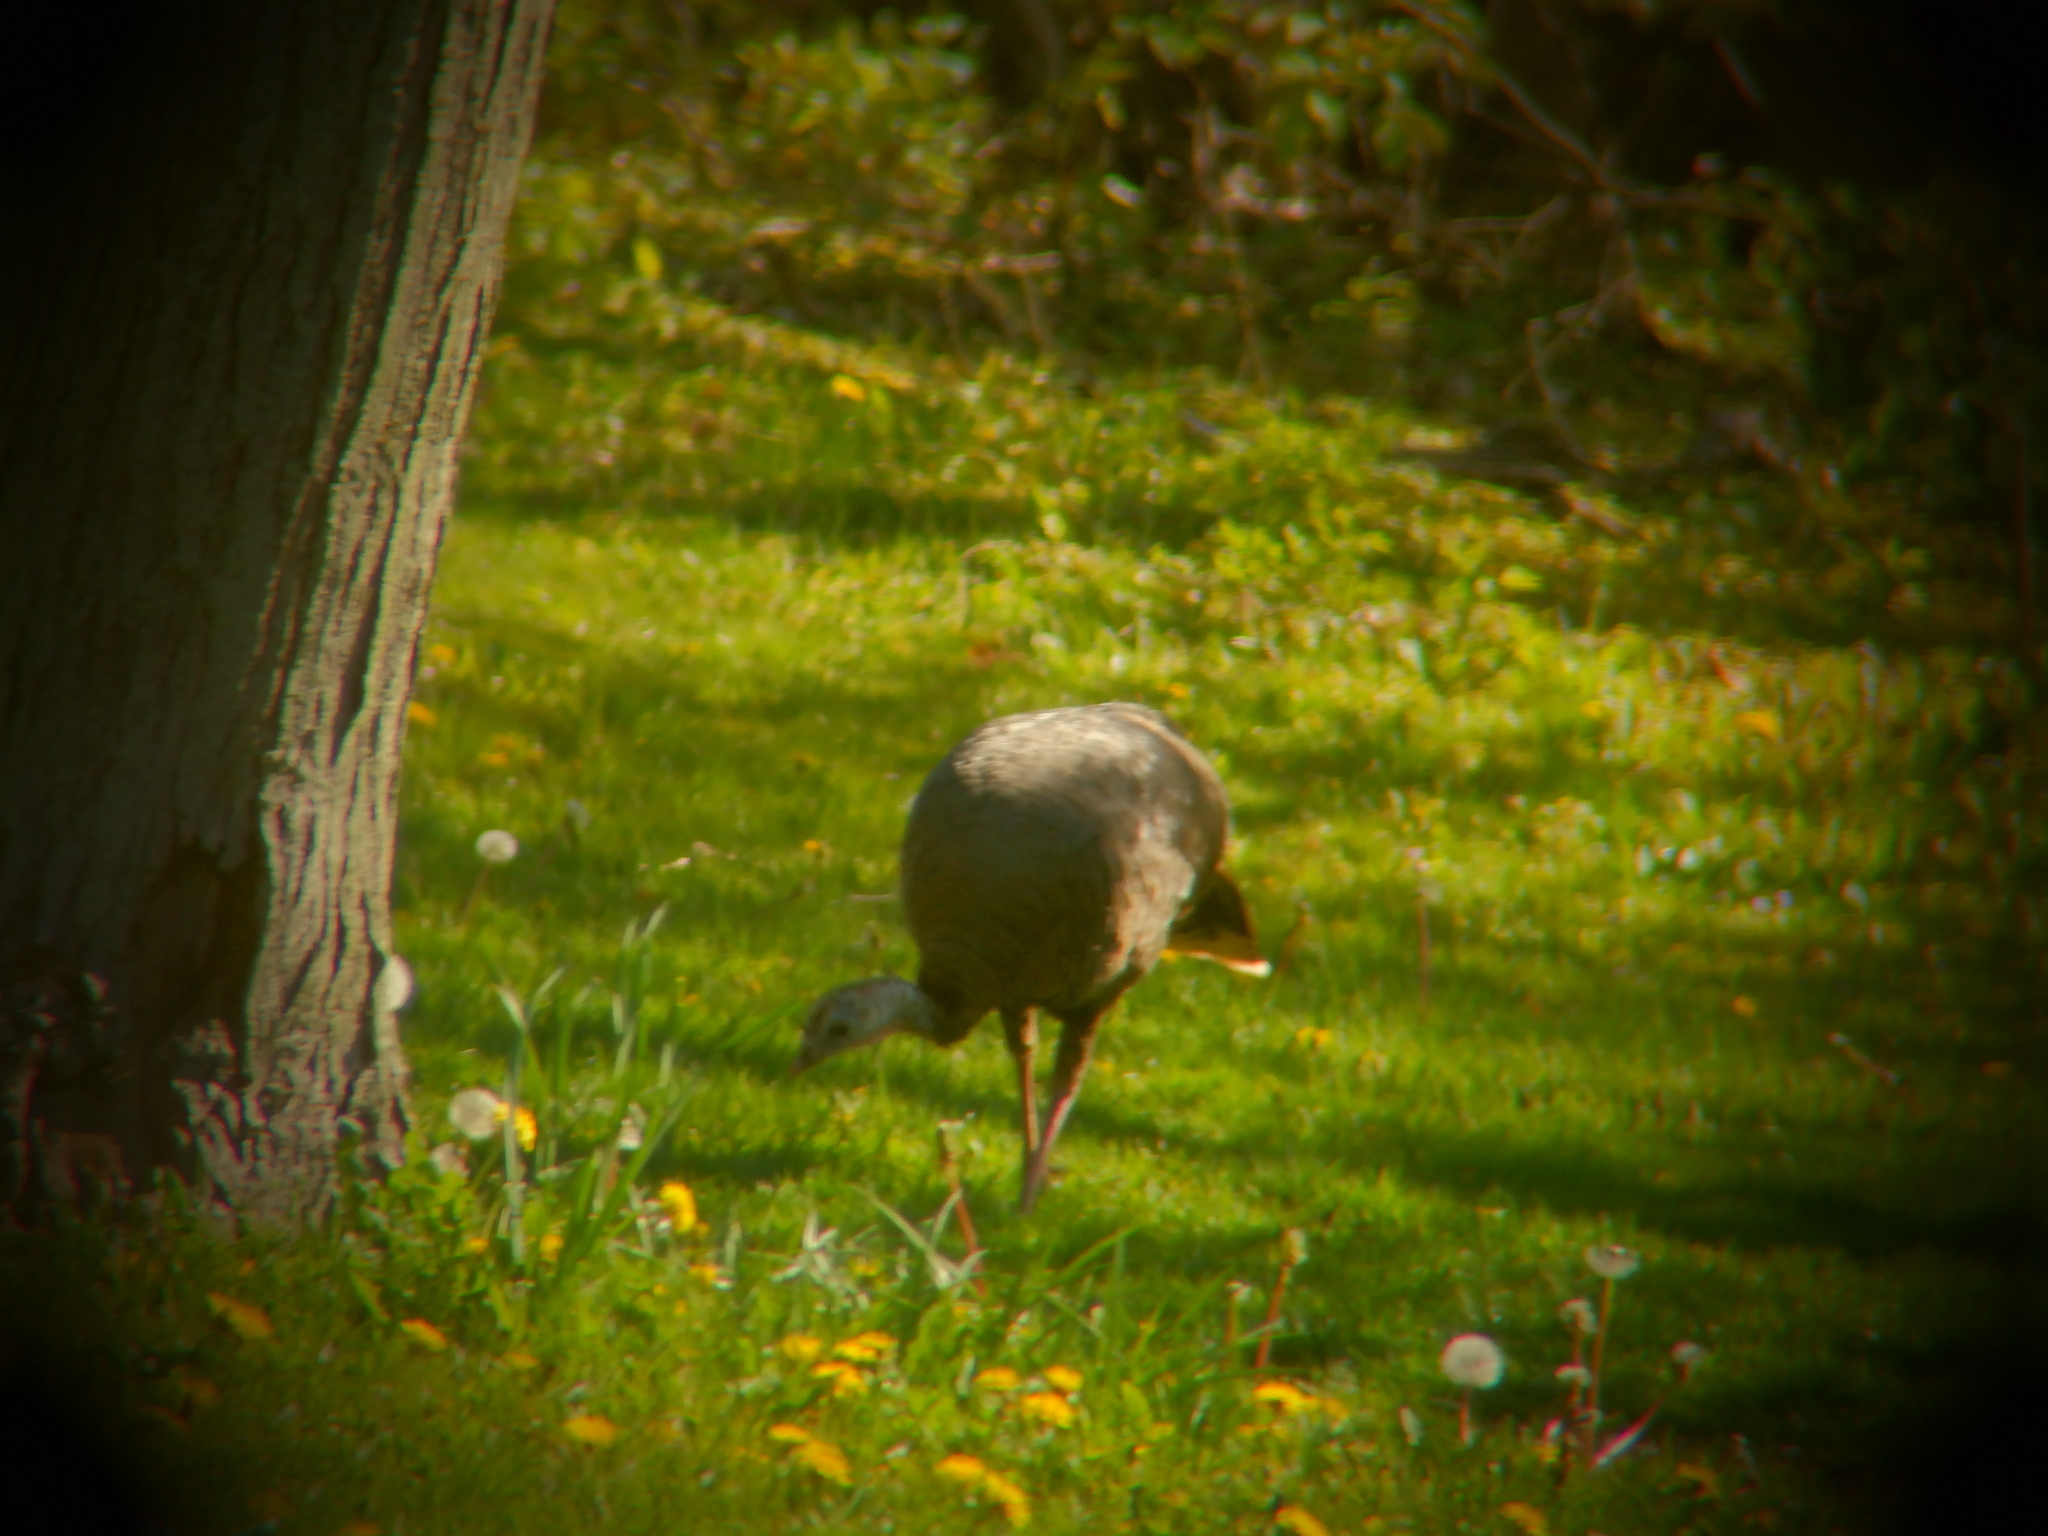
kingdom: Animalia
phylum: Chordata
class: Aves
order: Galliformes
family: Phasianidae
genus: Meleagris
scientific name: Meleagris gallopavo
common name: Wild turkey
